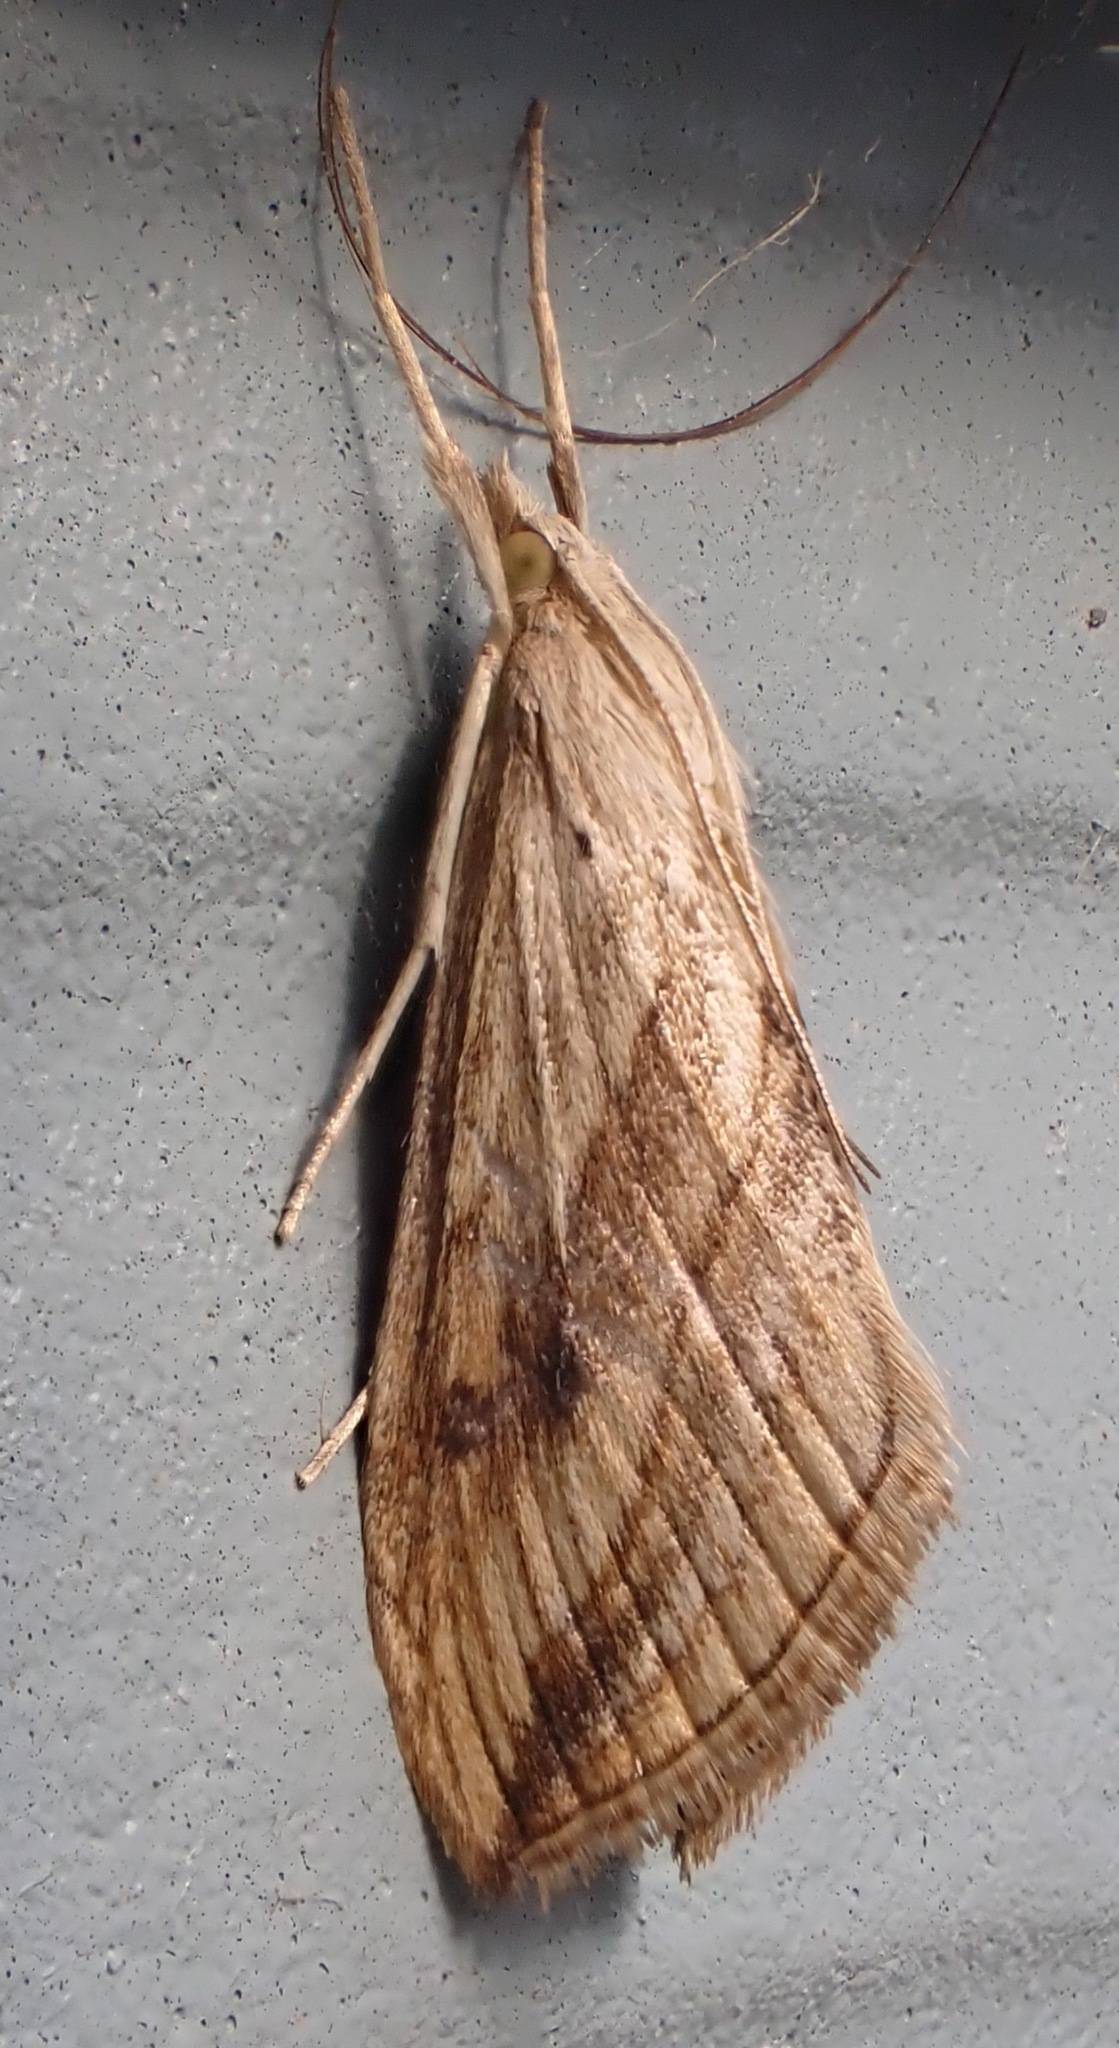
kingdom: Animalia
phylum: Arthropoda
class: Insecta
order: Lepidoptera
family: Crambidae
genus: Evergestis
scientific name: Evergestis forficalis
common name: Garden pebble
